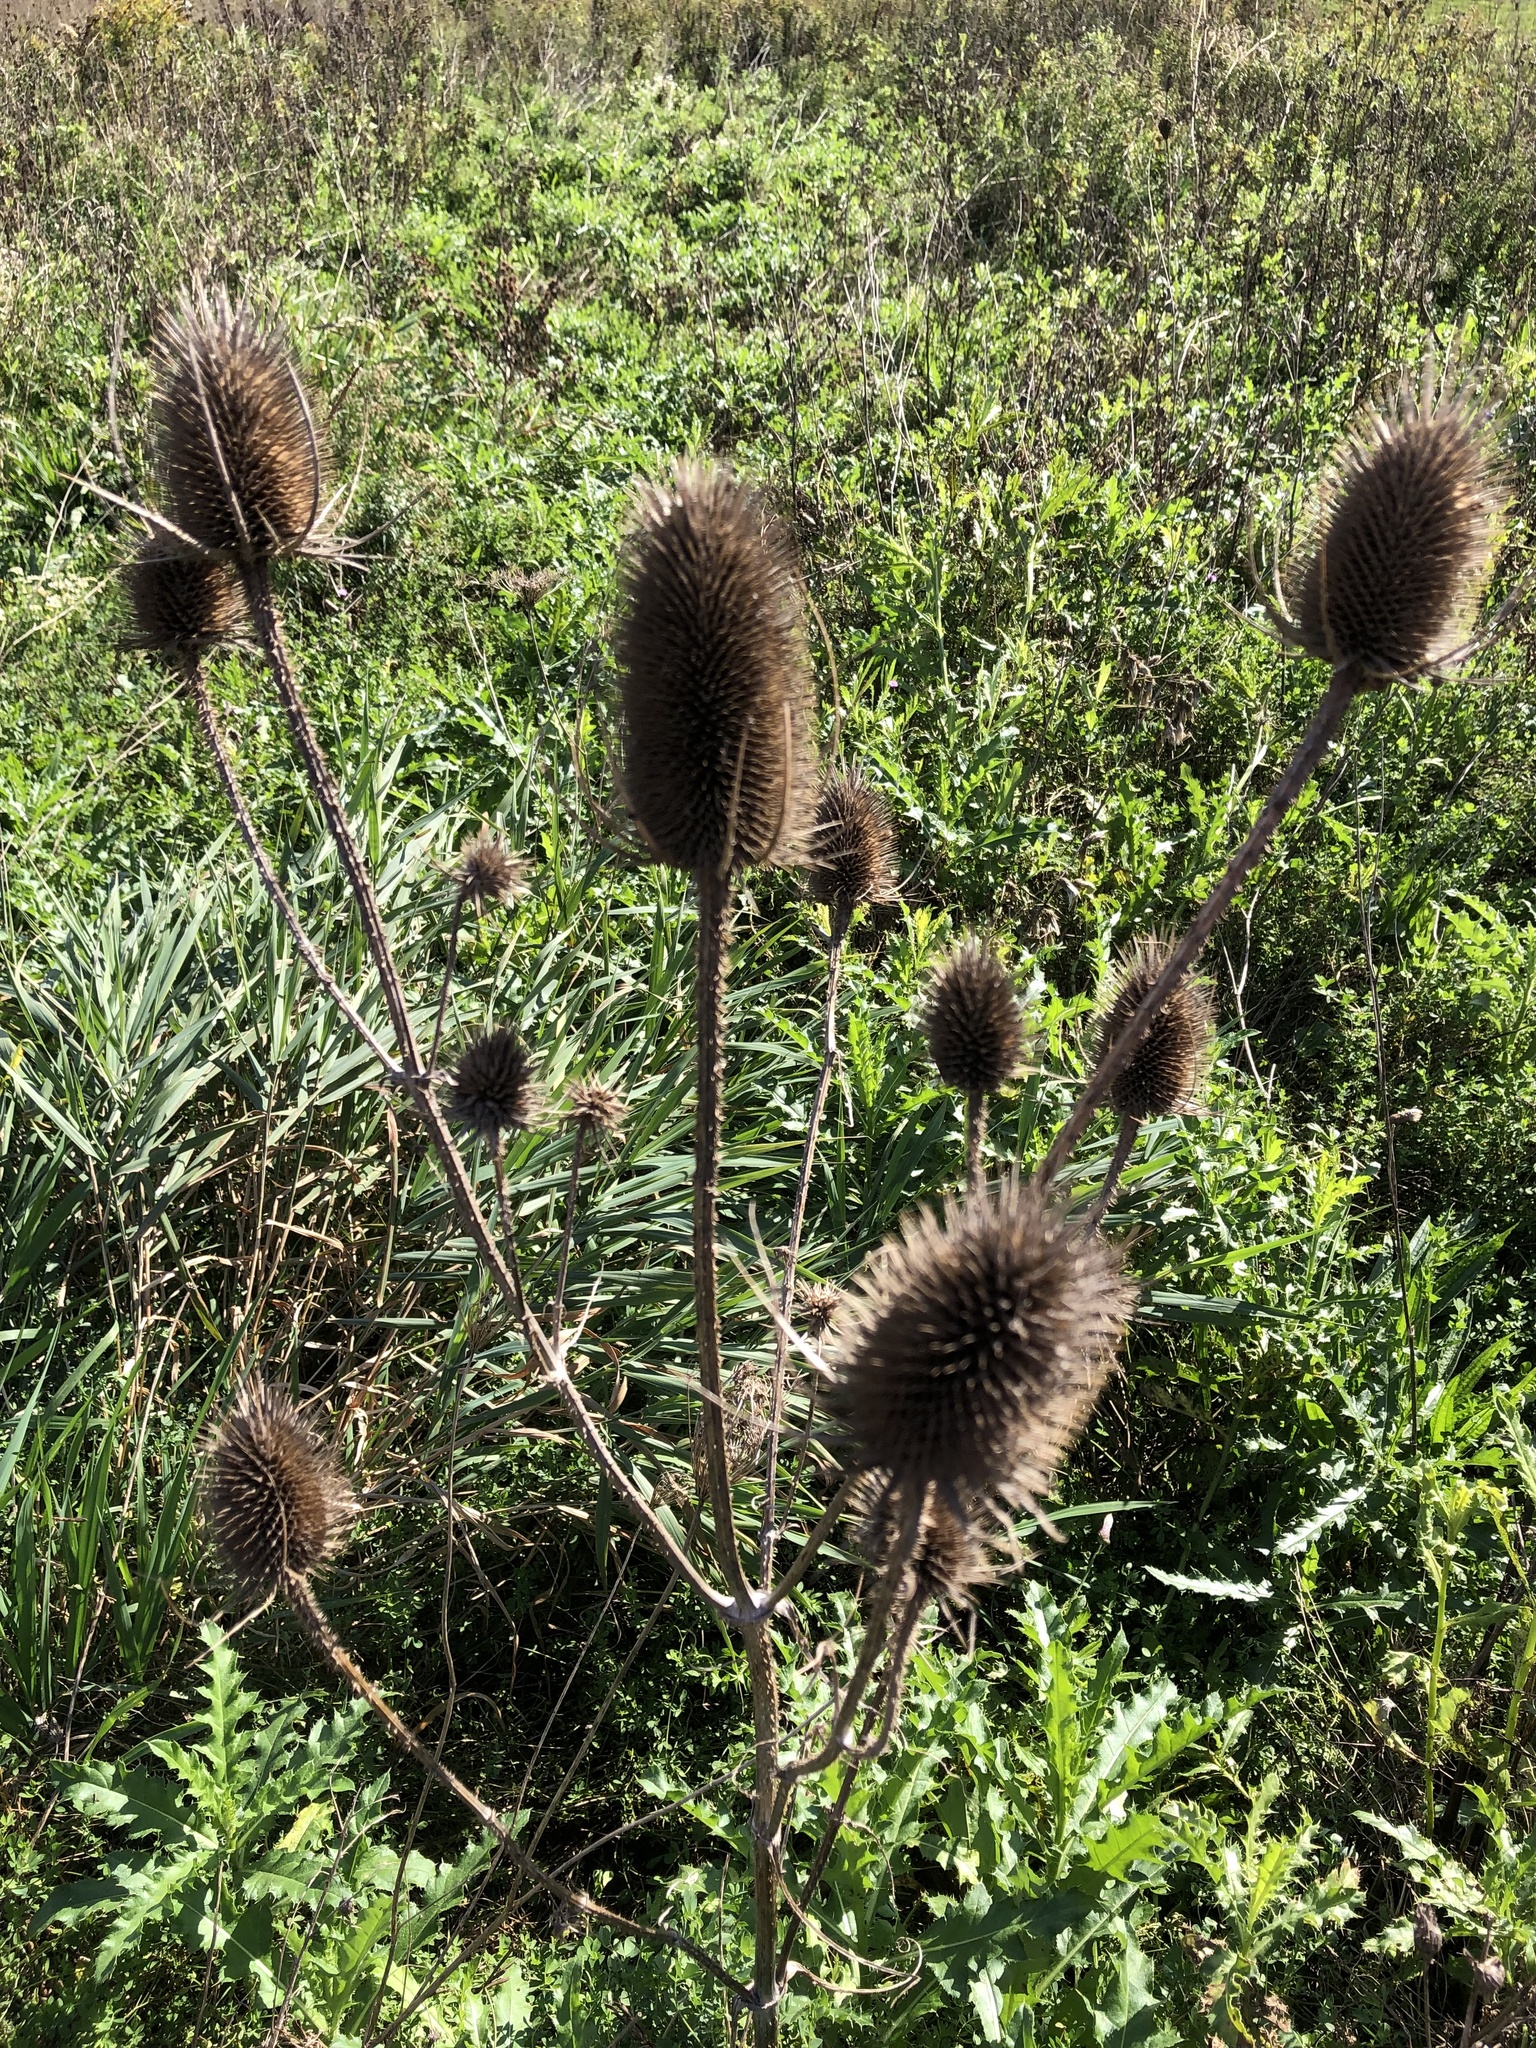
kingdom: Plantae
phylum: Tracheophyta
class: Magnoliopsida
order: Dipsacales
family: Caprifoliaceae
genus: Dipsacus
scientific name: Dipsacus fullonum
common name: Teasel
